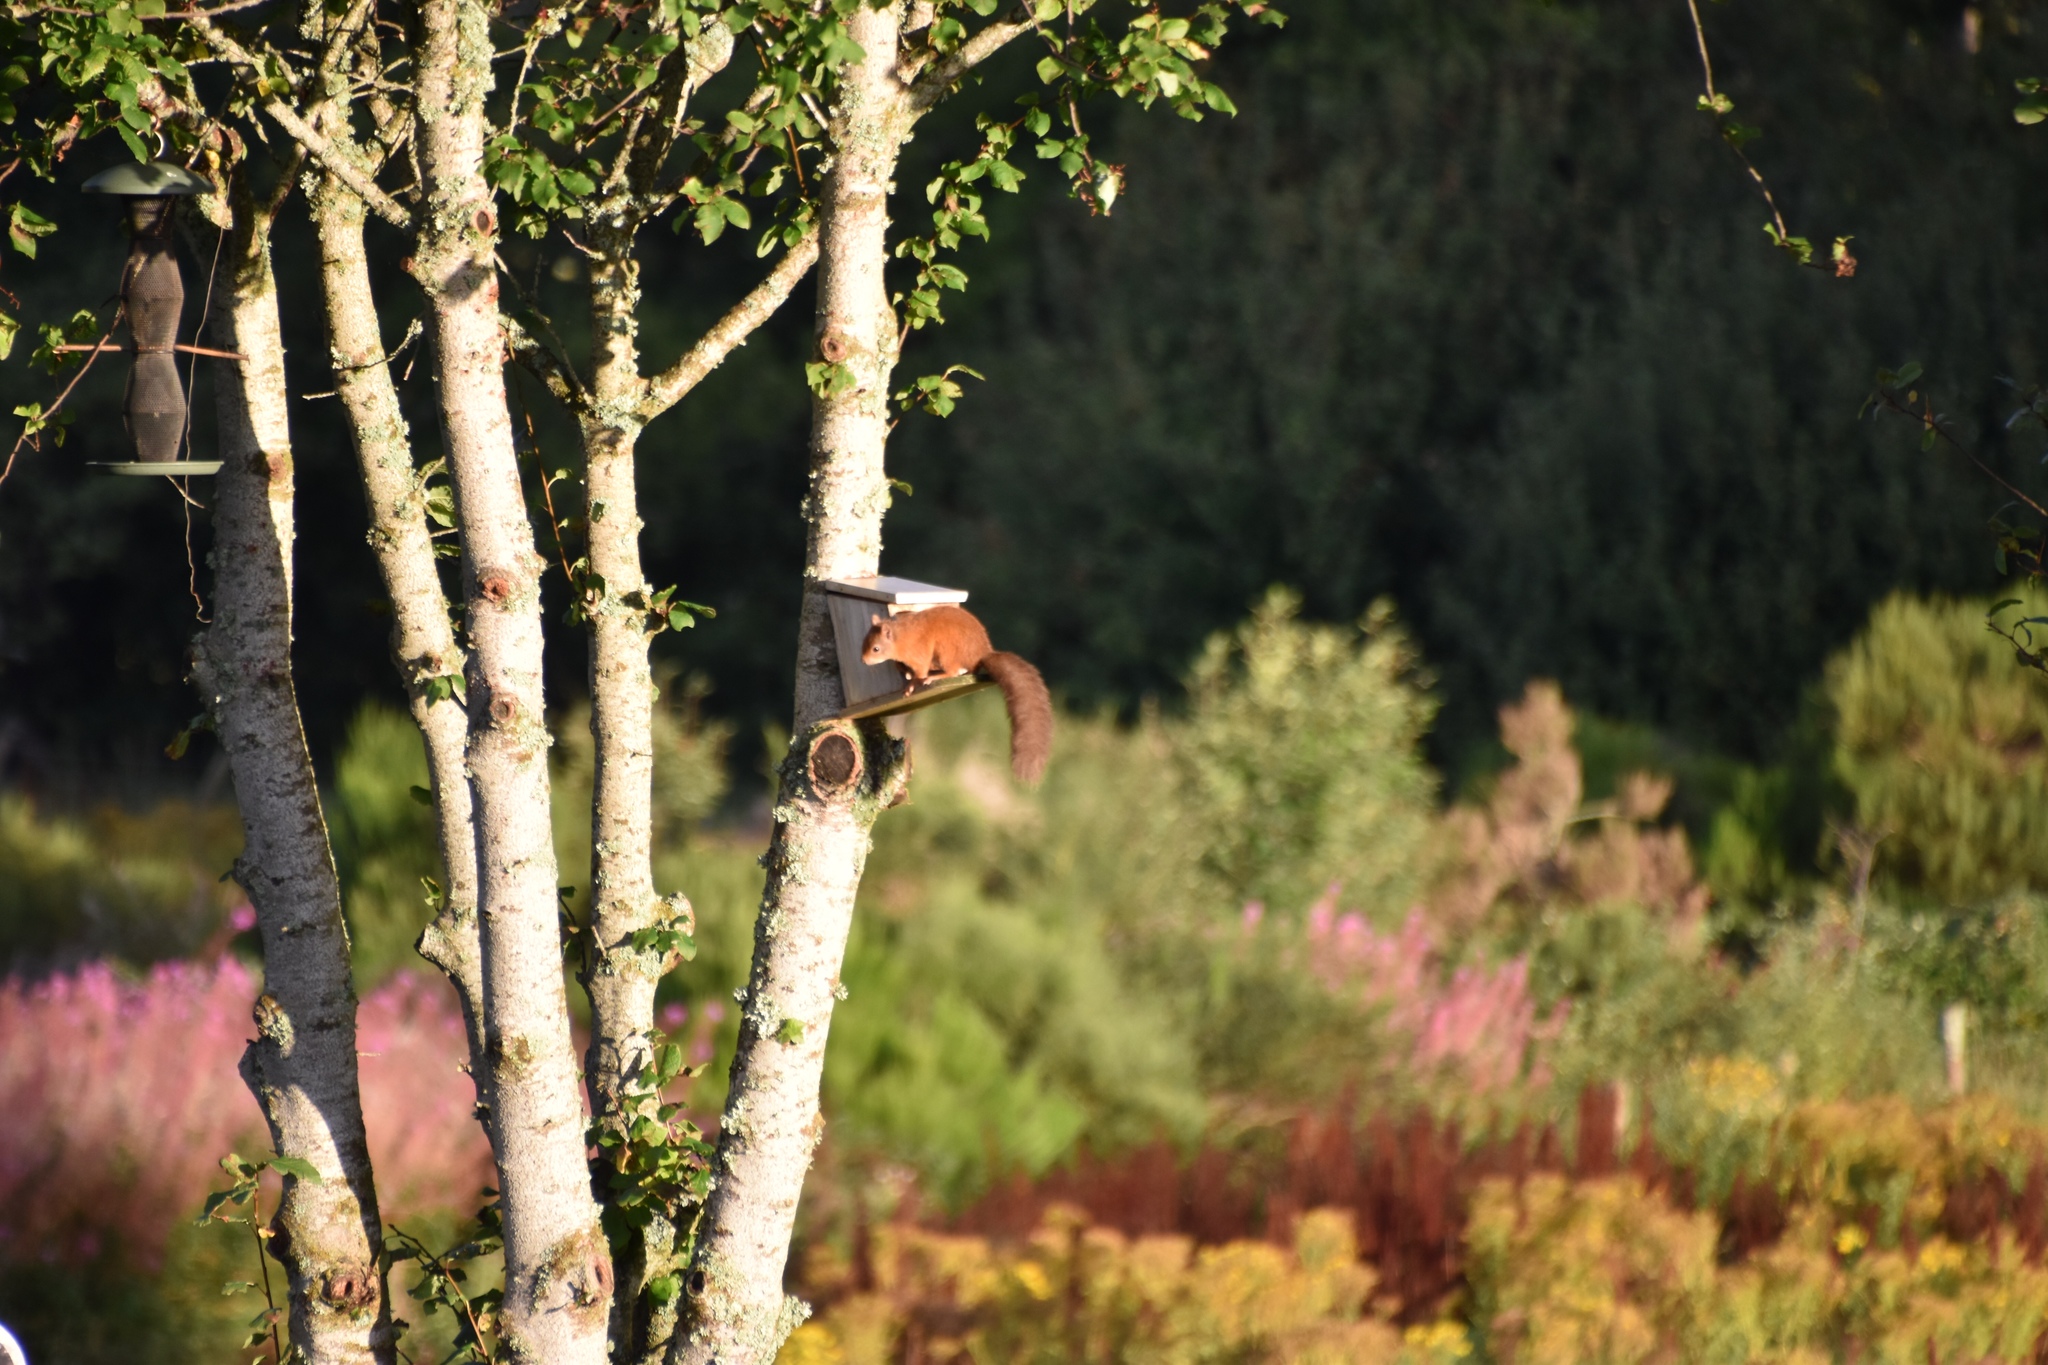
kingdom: Animalia
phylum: Chordata
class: Mammalia
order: Rodentia
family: Sciuridae
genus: Sciurus
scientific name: Sciurus vulgaris
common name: Eurasian red squirrel
